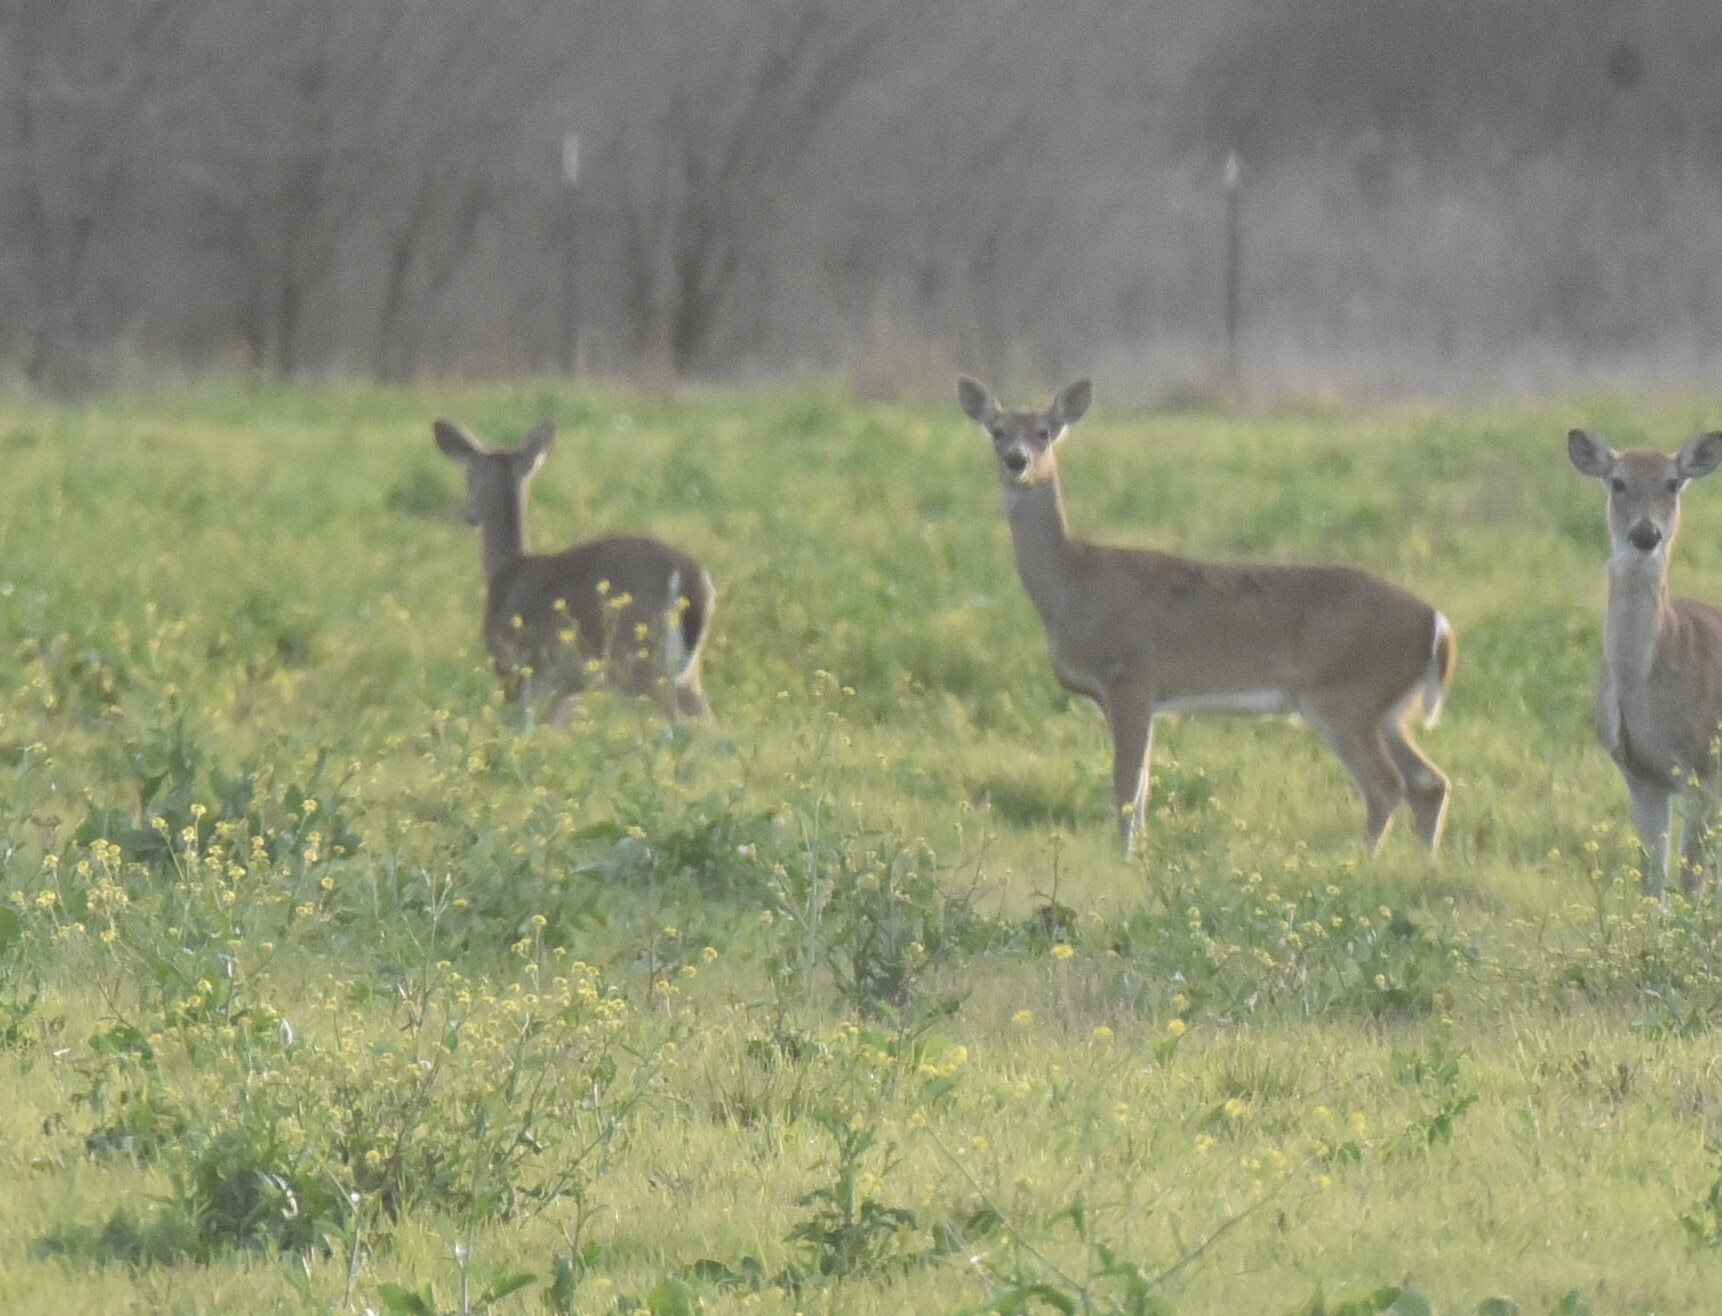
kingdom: Animalia
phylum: Chordata
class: Mammalia
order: Artiodactyla
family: Cervidae
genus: Odocoileus
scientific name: Odocoileus virginianus
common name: White-tailed deer
